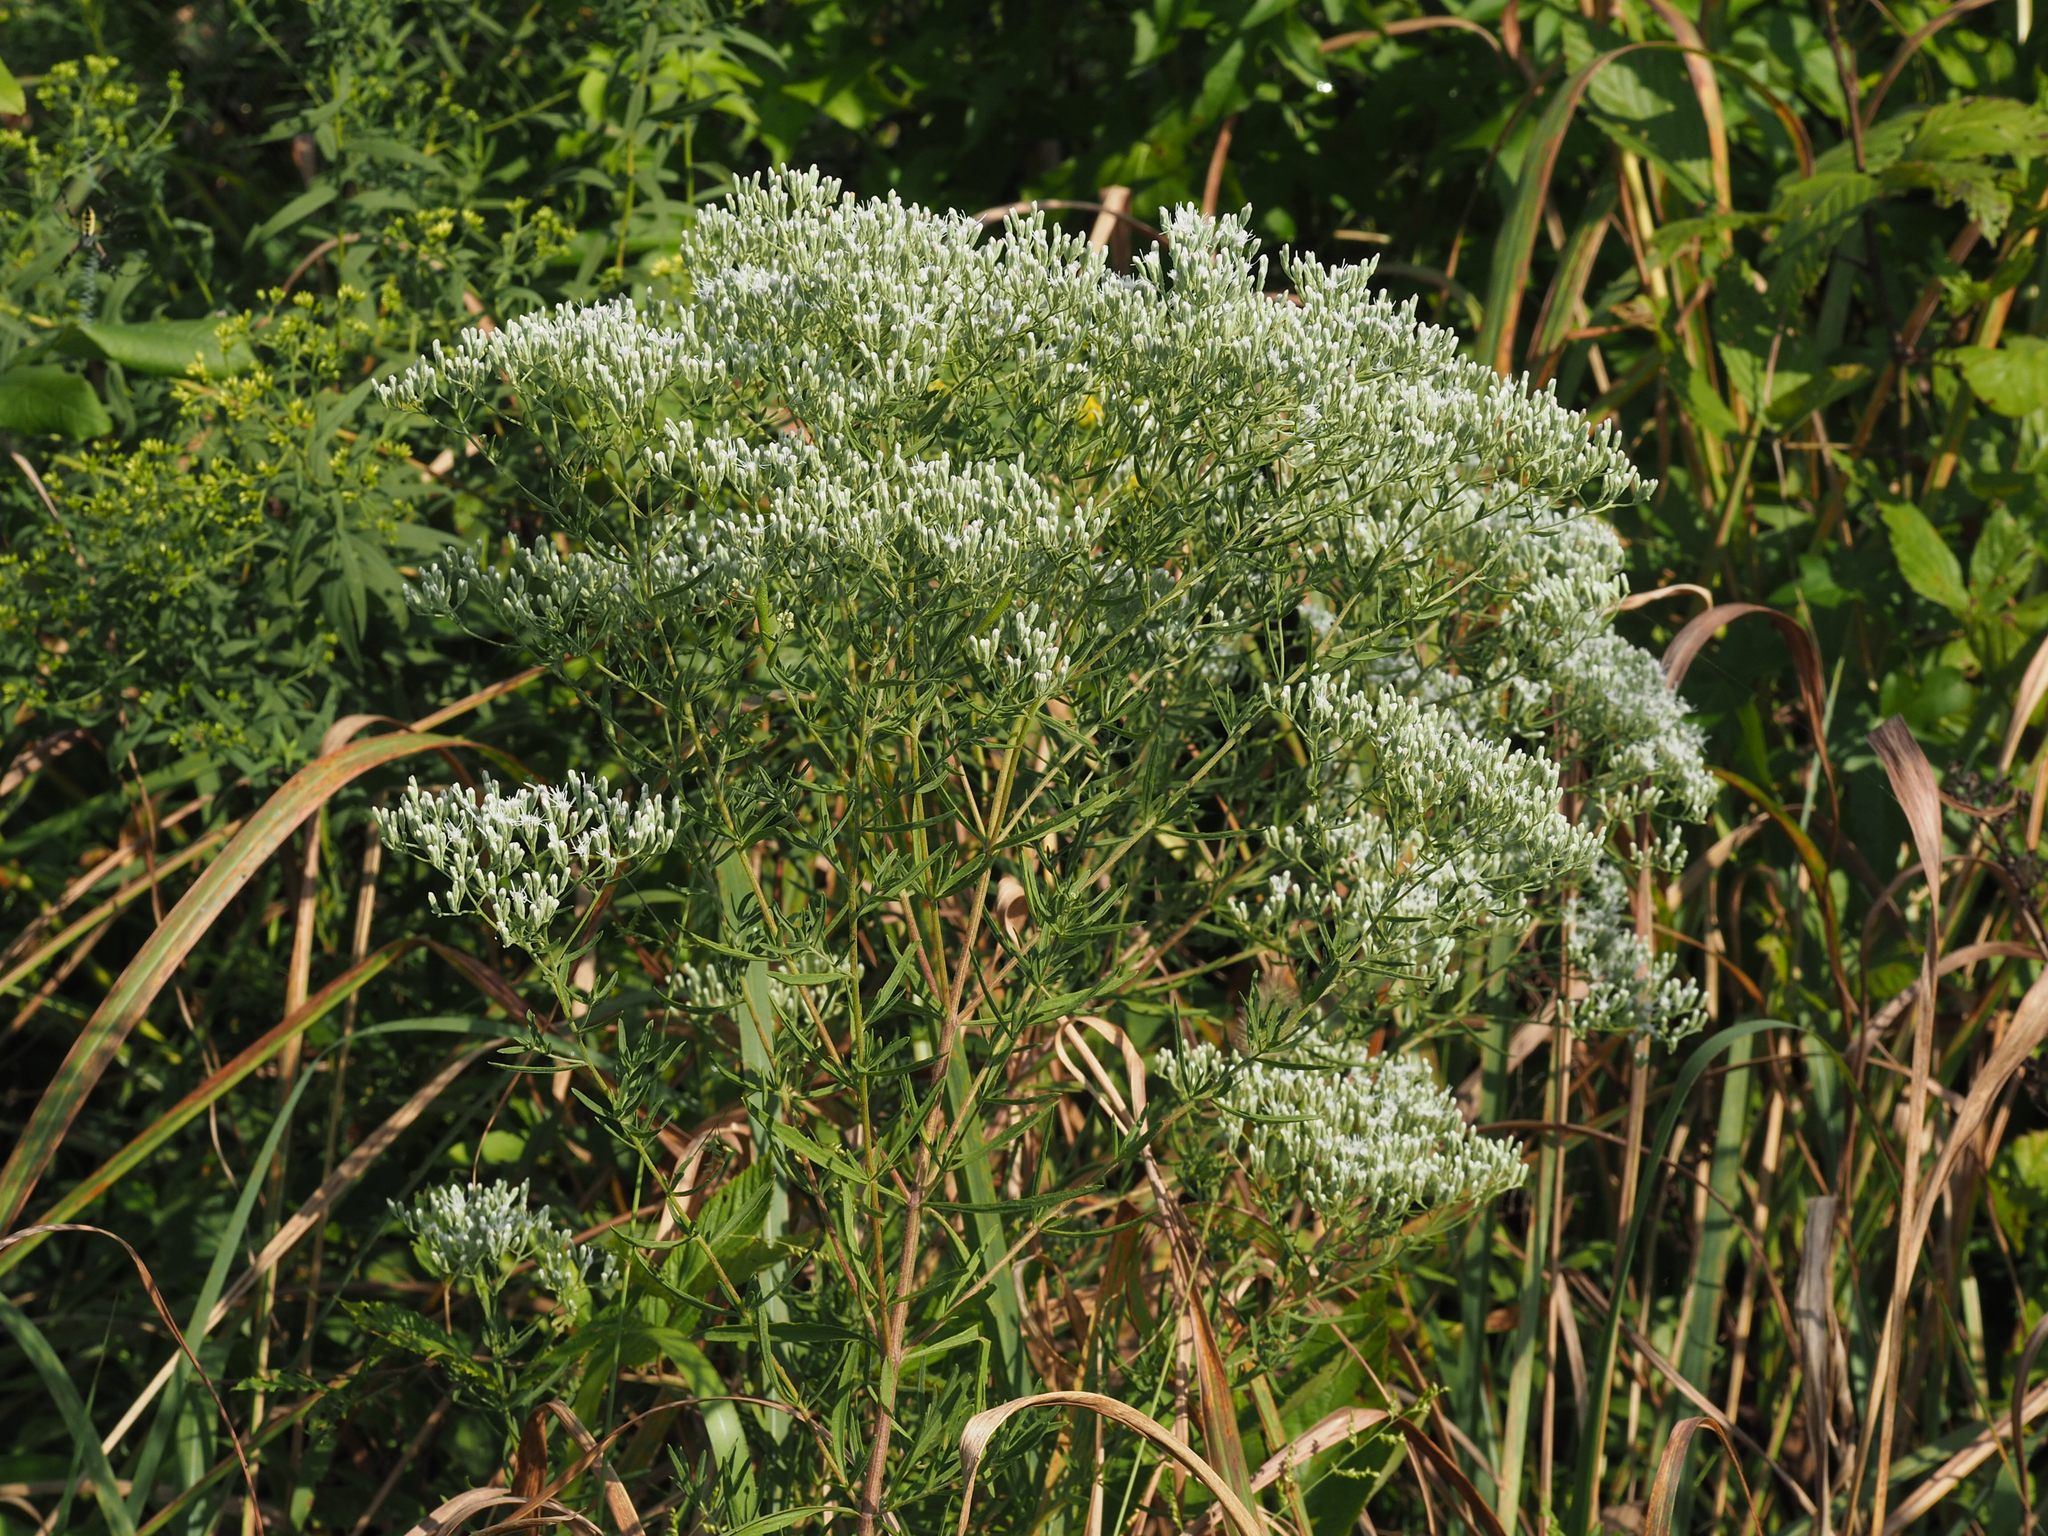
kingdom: Plantae
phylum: Tracheophyta
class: Magnoliopsida
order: Asterales
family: Asteraceae
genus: Eupatorium
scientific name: Eupatorium serotinum
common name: Late boneset
